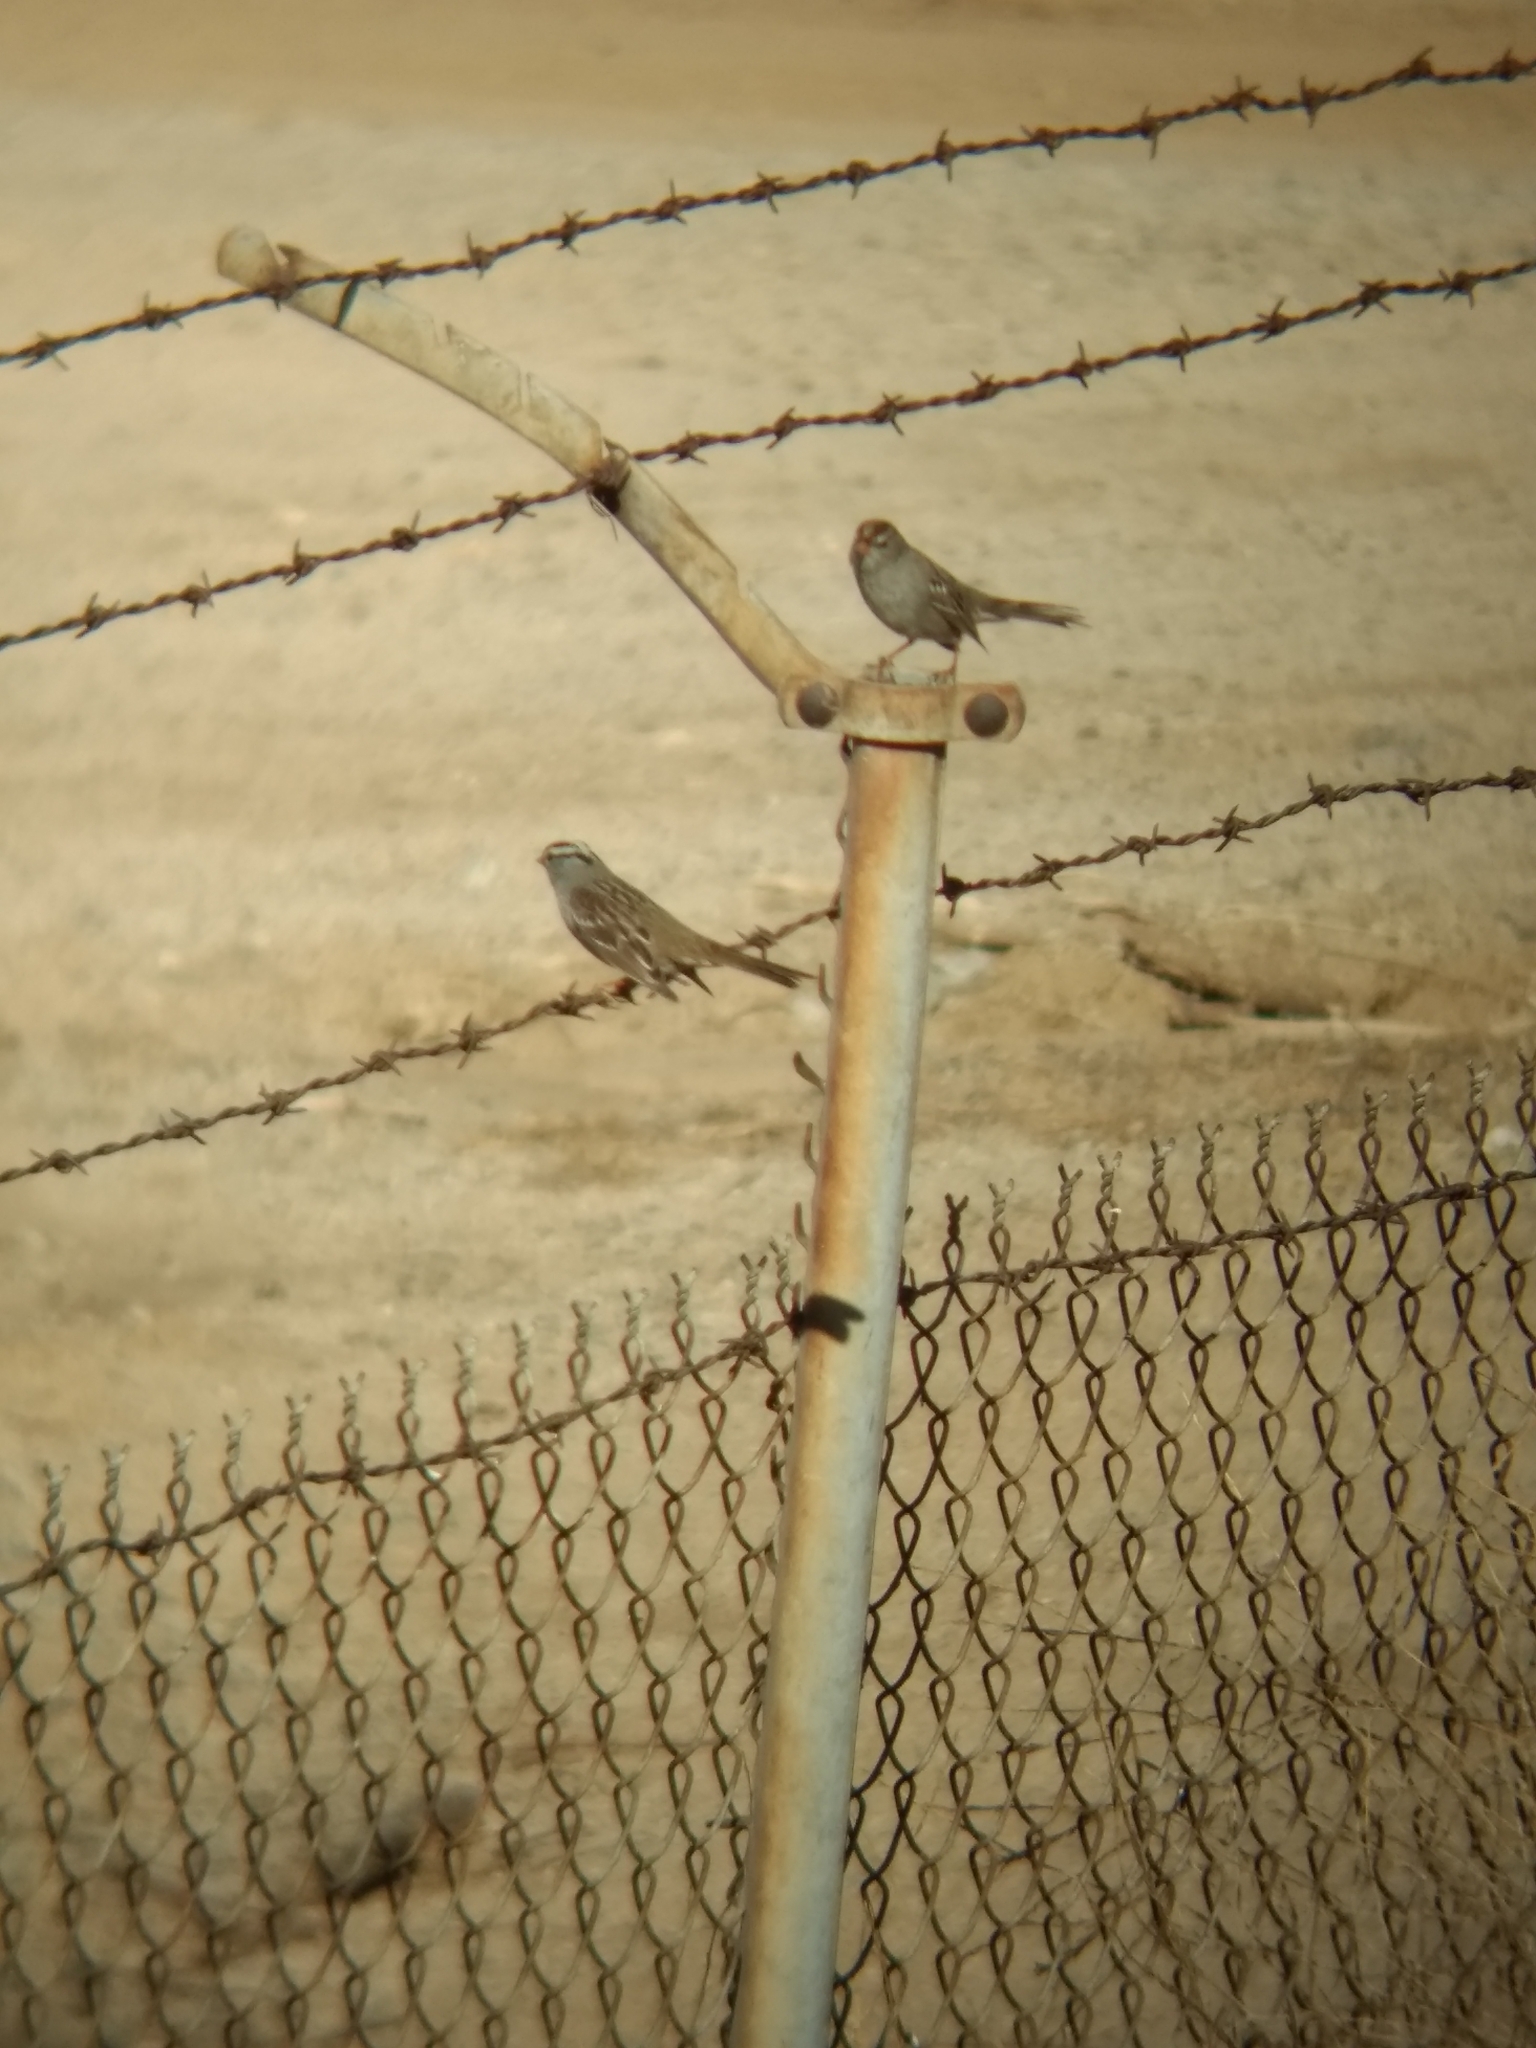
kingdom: Animalia
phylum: Chordata
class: Aves
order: Passeriformes
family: Passerellidae
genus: Zonotrichia
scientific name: Zonotrichia leucophrys
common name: White-crowned sparrow
